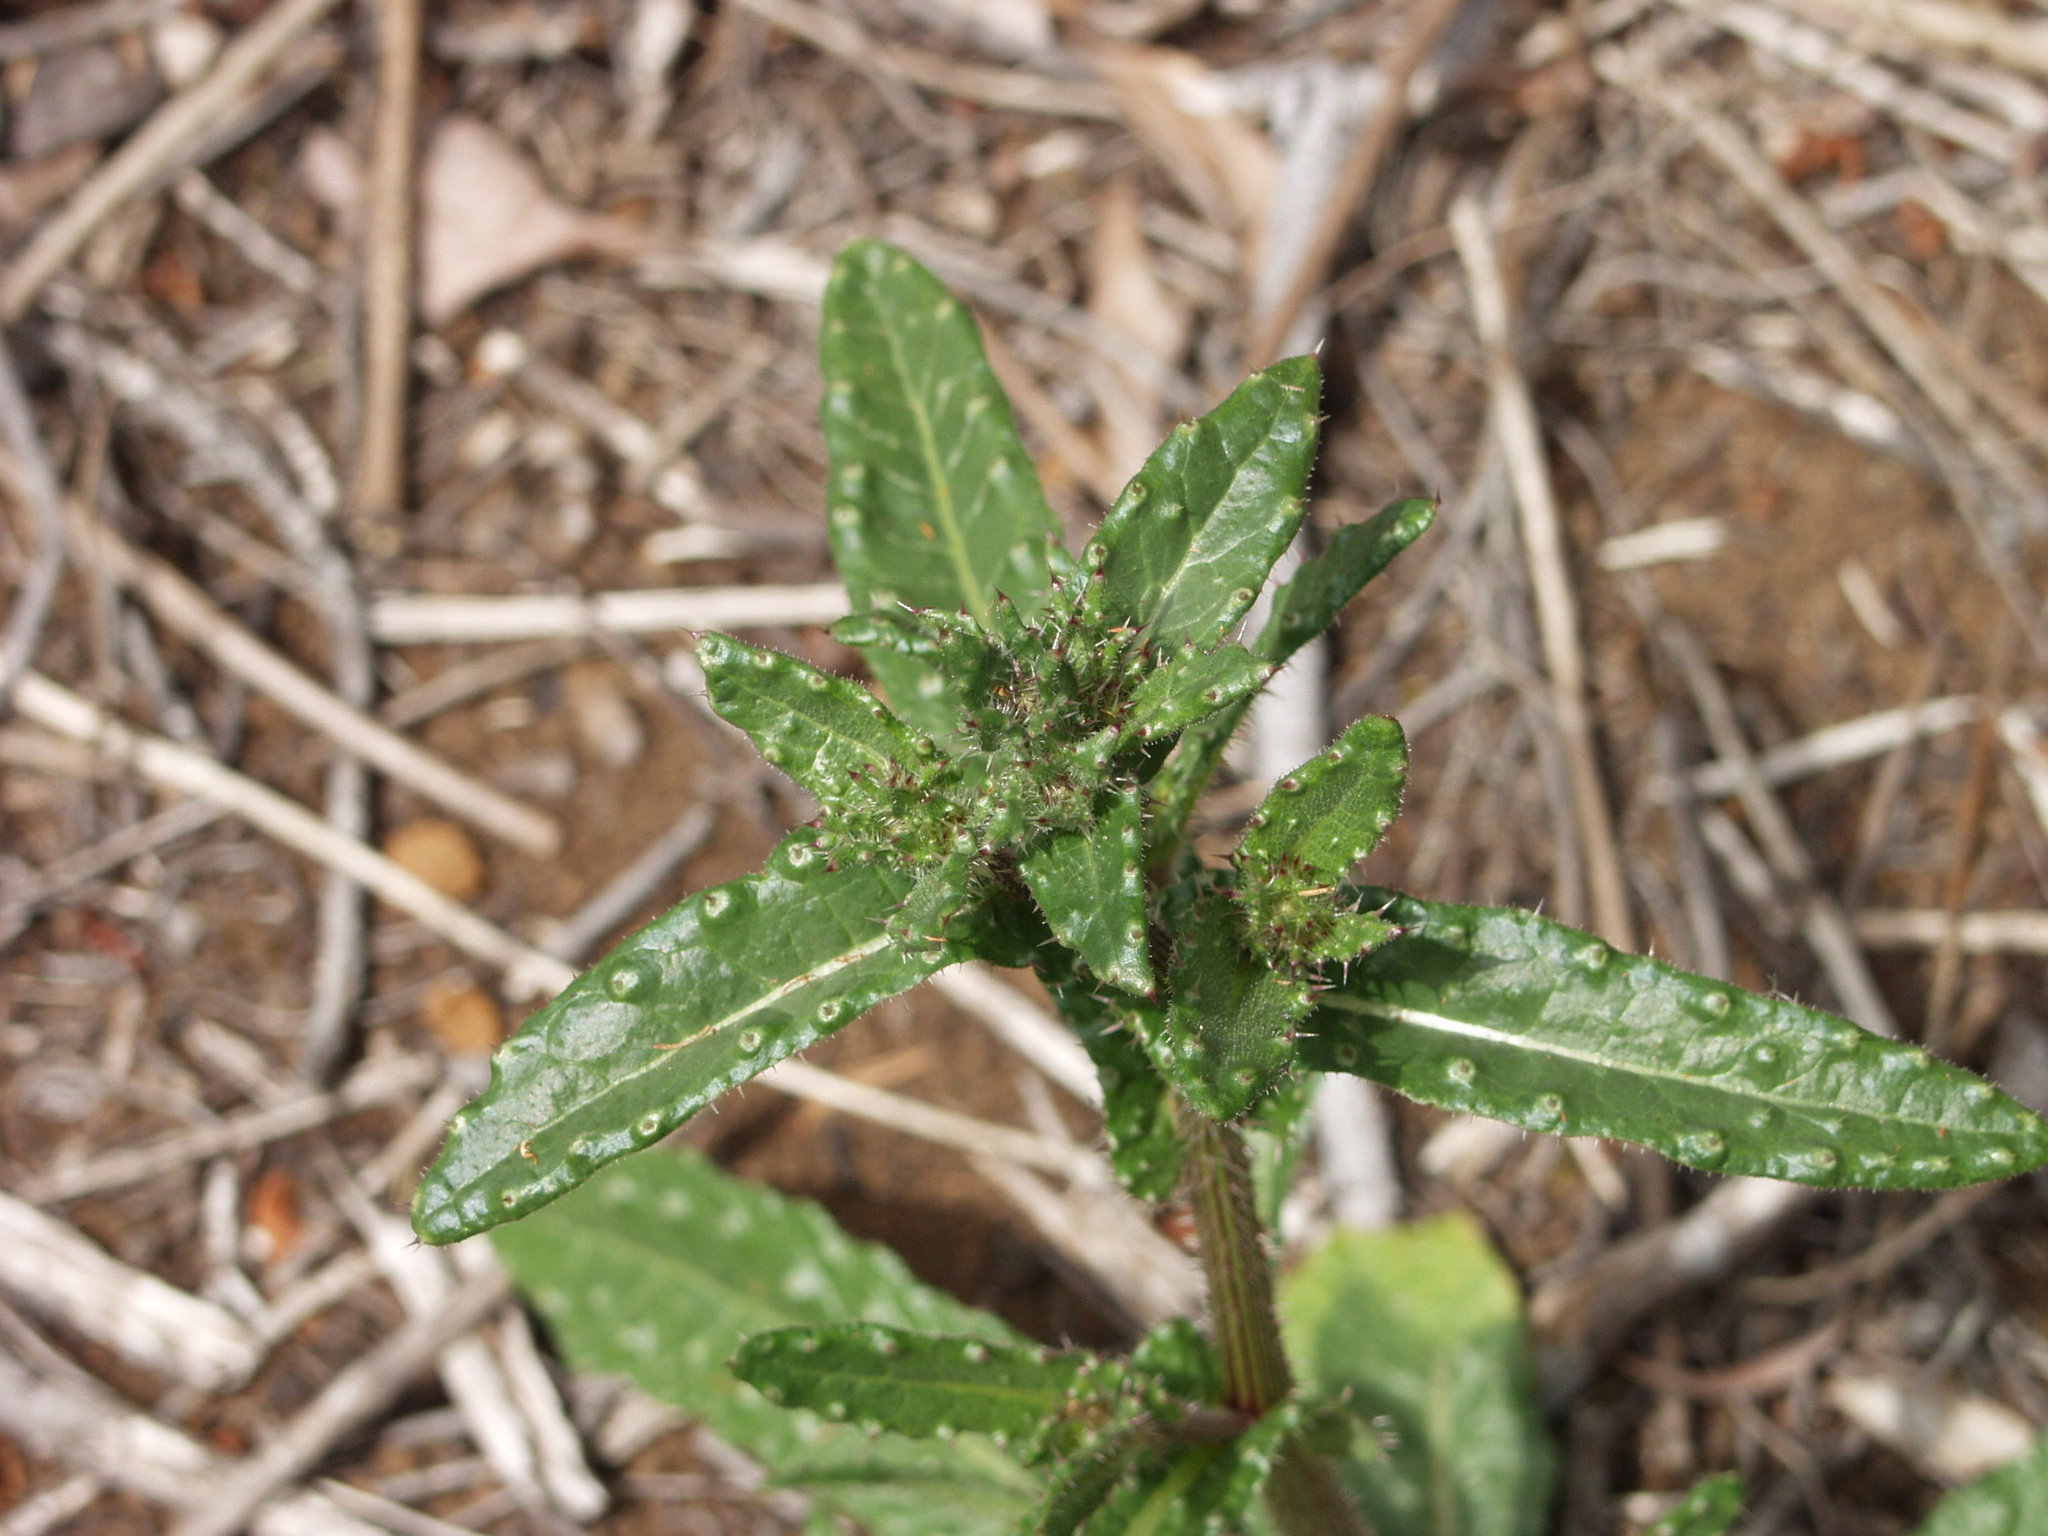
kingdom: Plantae
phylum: Tracheophyta
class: Magnoliopsida
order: Asterales
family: Asteraceae
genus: Helminthotheca
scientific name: Helminthotheca echioides
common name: Ox-tongue
